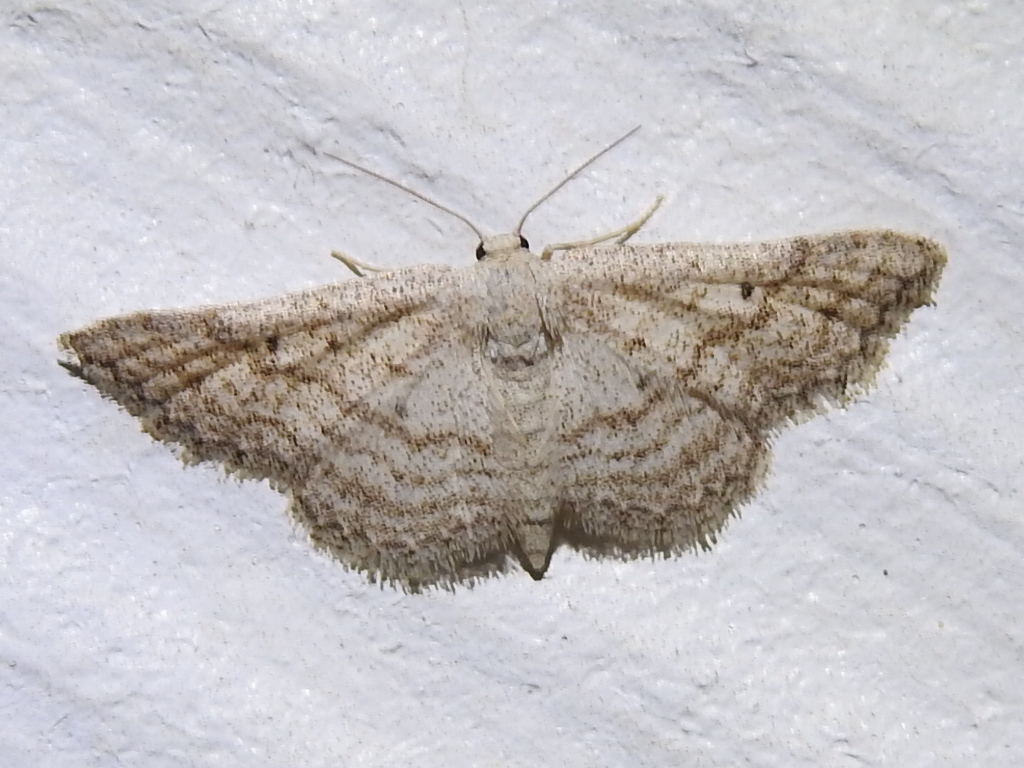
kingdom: Animalia
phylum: Arthropoda
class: Insecta
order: Lepidoptera
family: Geometridae
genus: Lobocleta
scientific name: Lobocleta ossularia
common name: Drab brown wave
